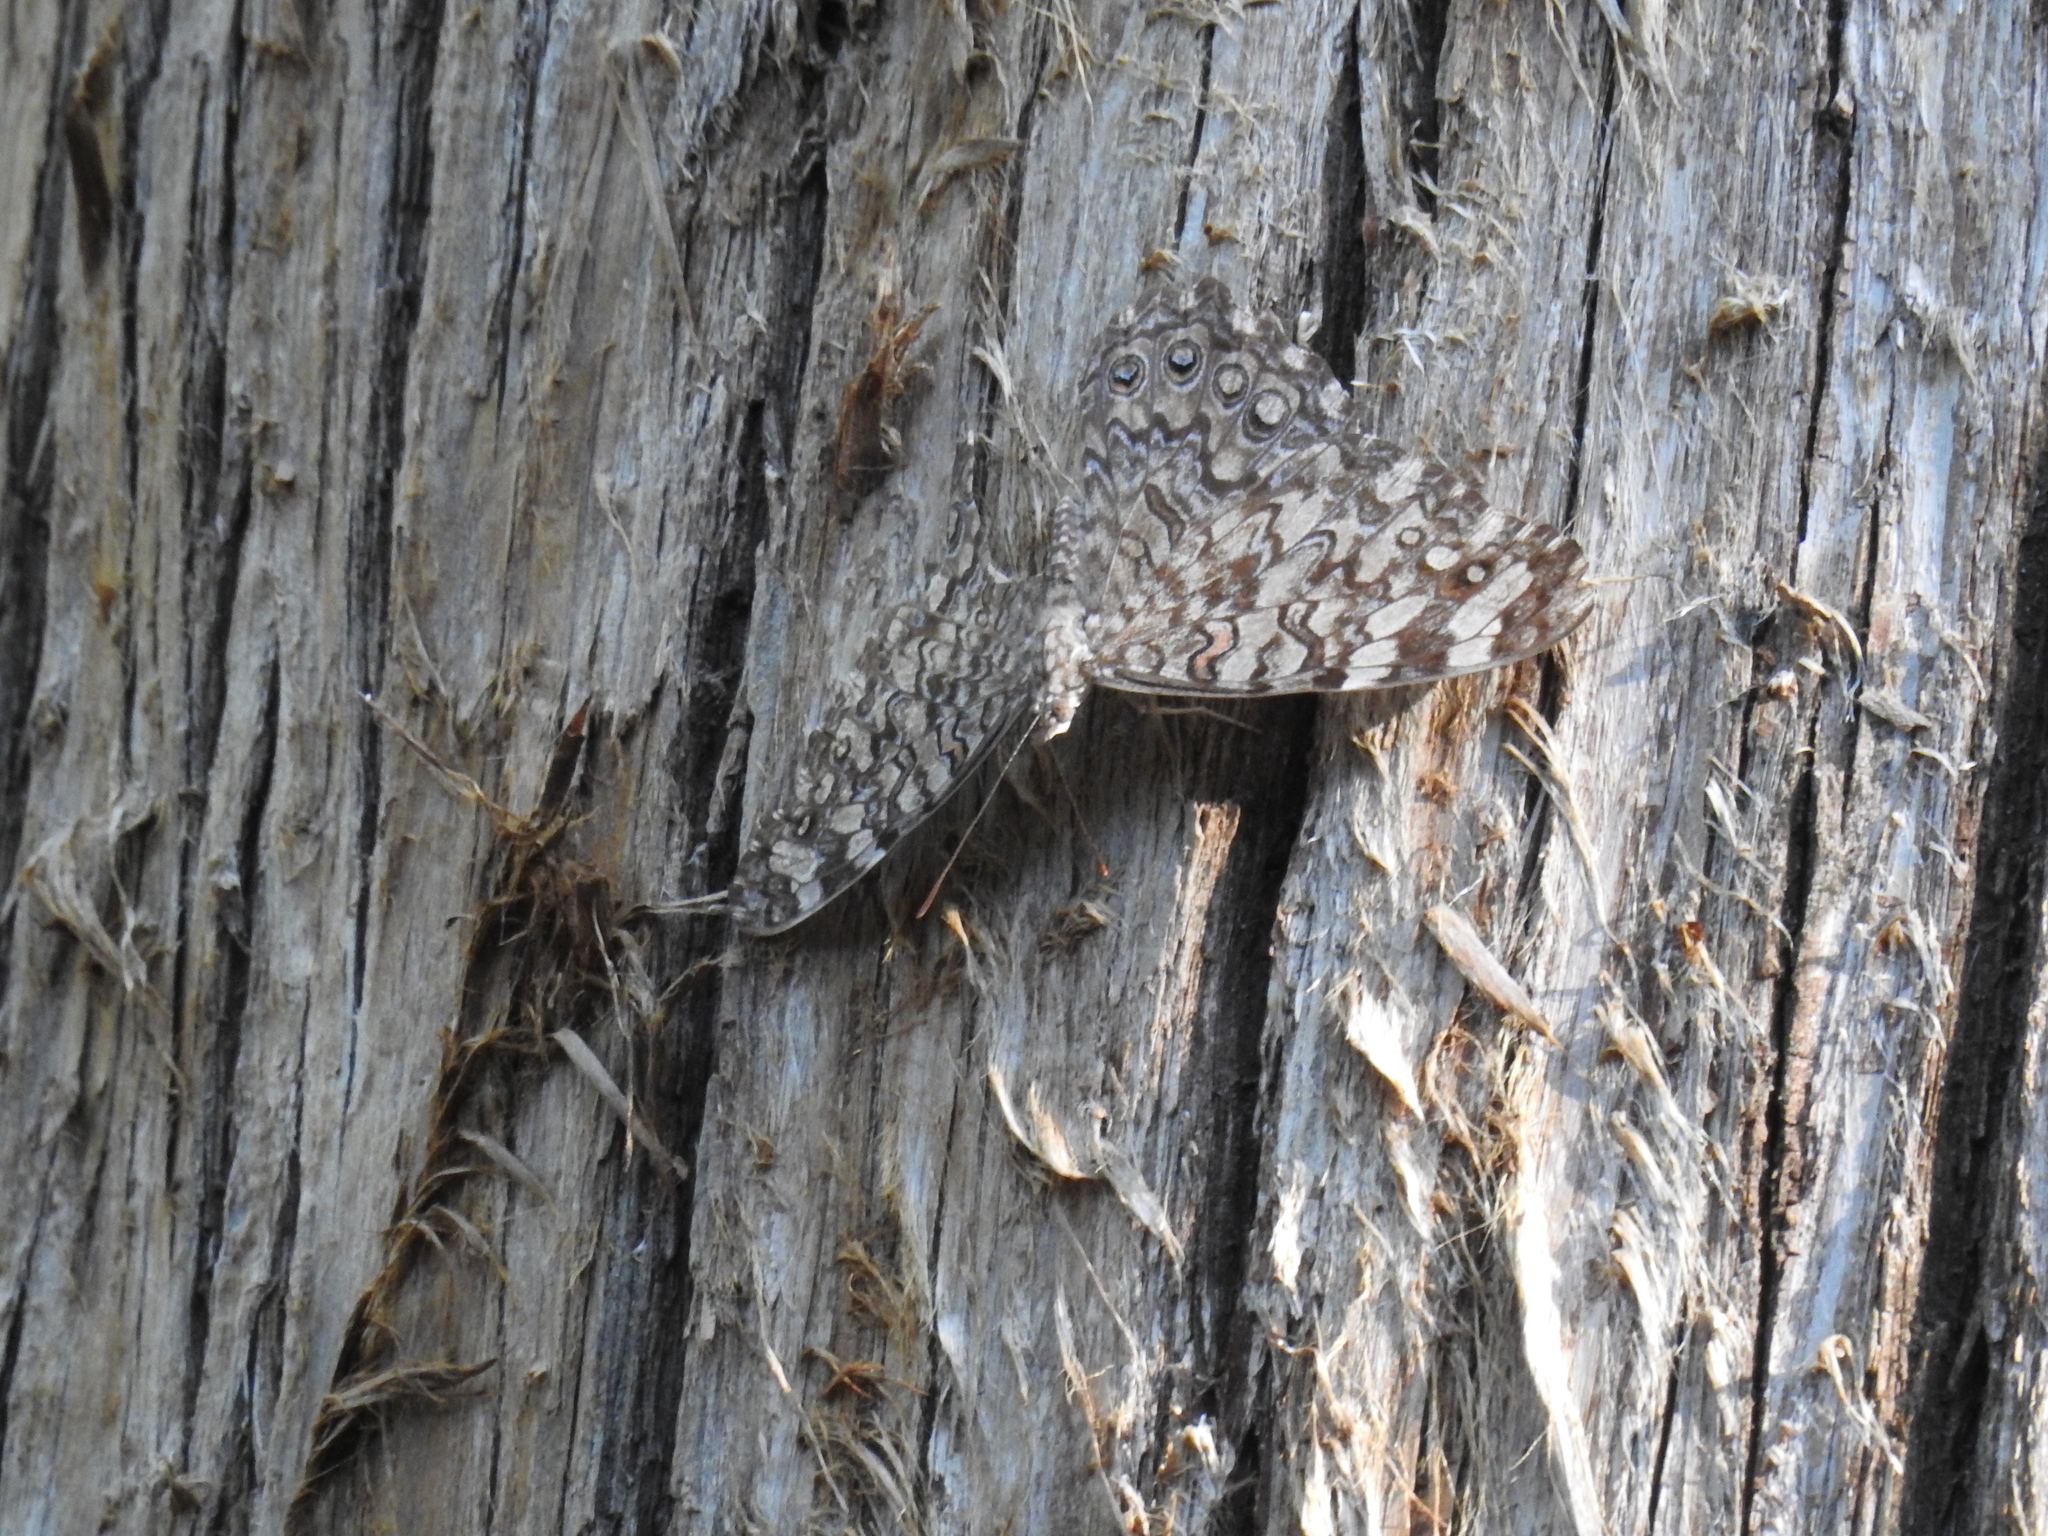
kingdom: Animalia
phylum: Arthropoda
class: Insecta
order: Lepidoptera
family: Nymphalidae
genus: Hamadryas
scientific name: Hamadryas februa
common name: Gray cracker
